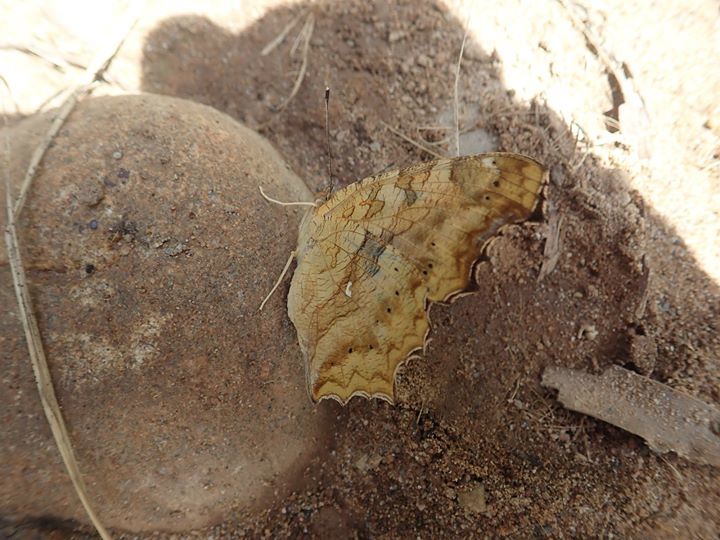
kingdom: Animalia
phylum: Arthropoda
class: Insecta
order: Lepidoptera
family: Nymphalidae
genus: Polygonia
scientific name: Polygonia c-aureum
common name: Asian comma
